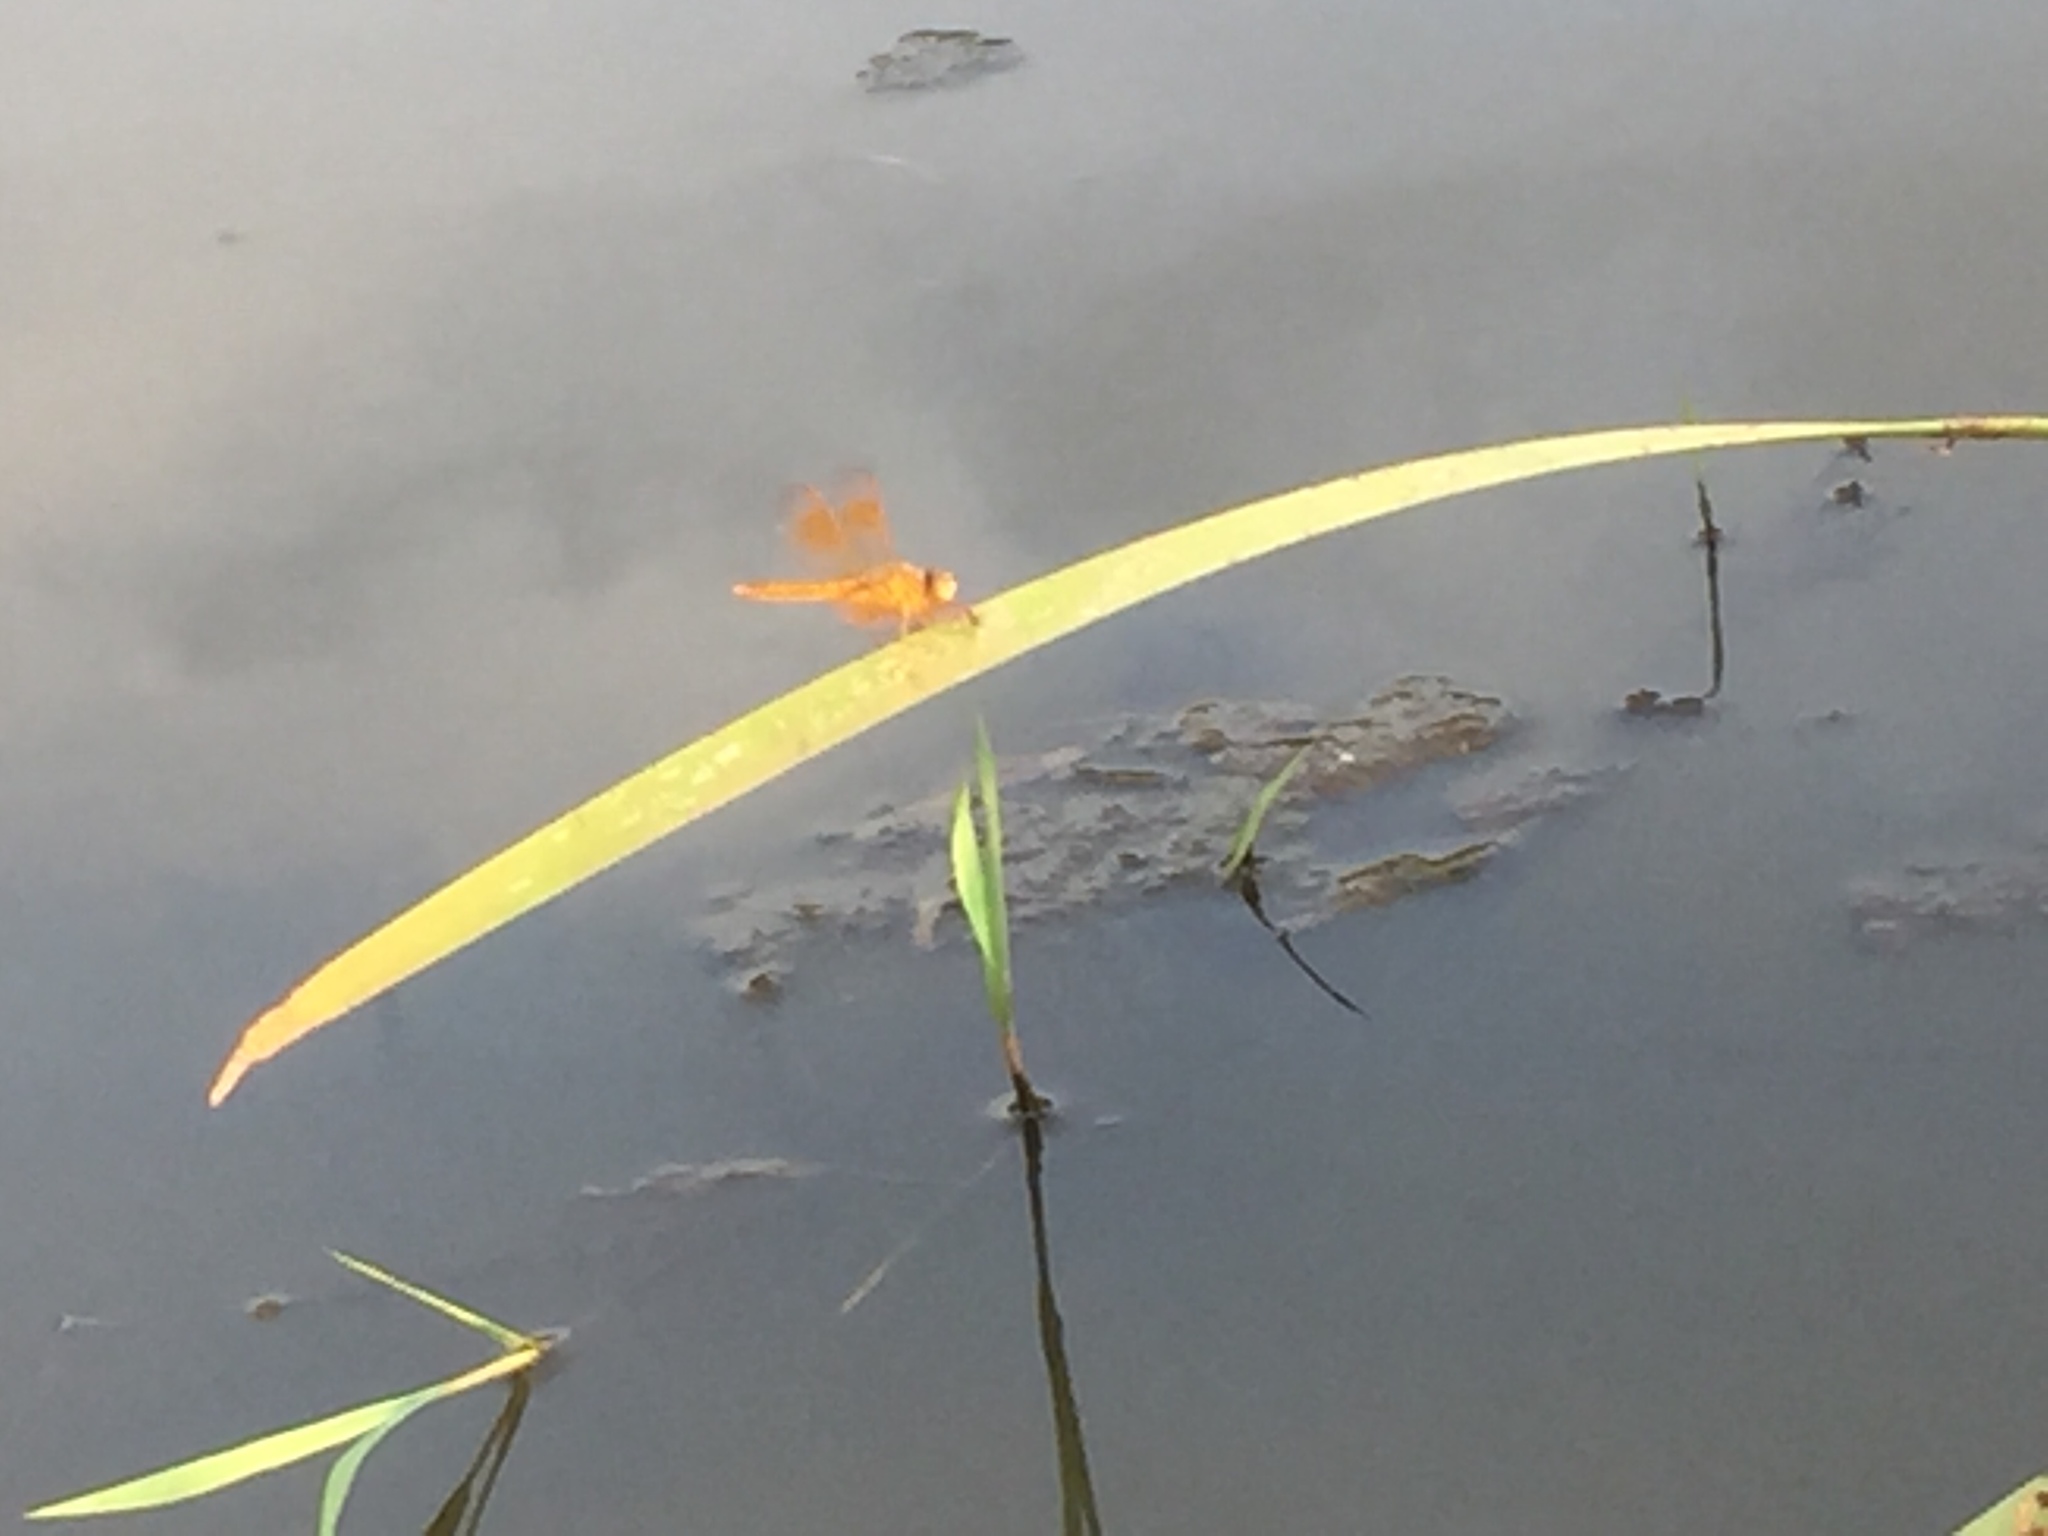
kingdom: Animalia
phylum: Arthropoda
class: Insecta
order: Odonata
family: Libellulidae
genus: Brachythemis
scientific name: Brachythemis contaminata
